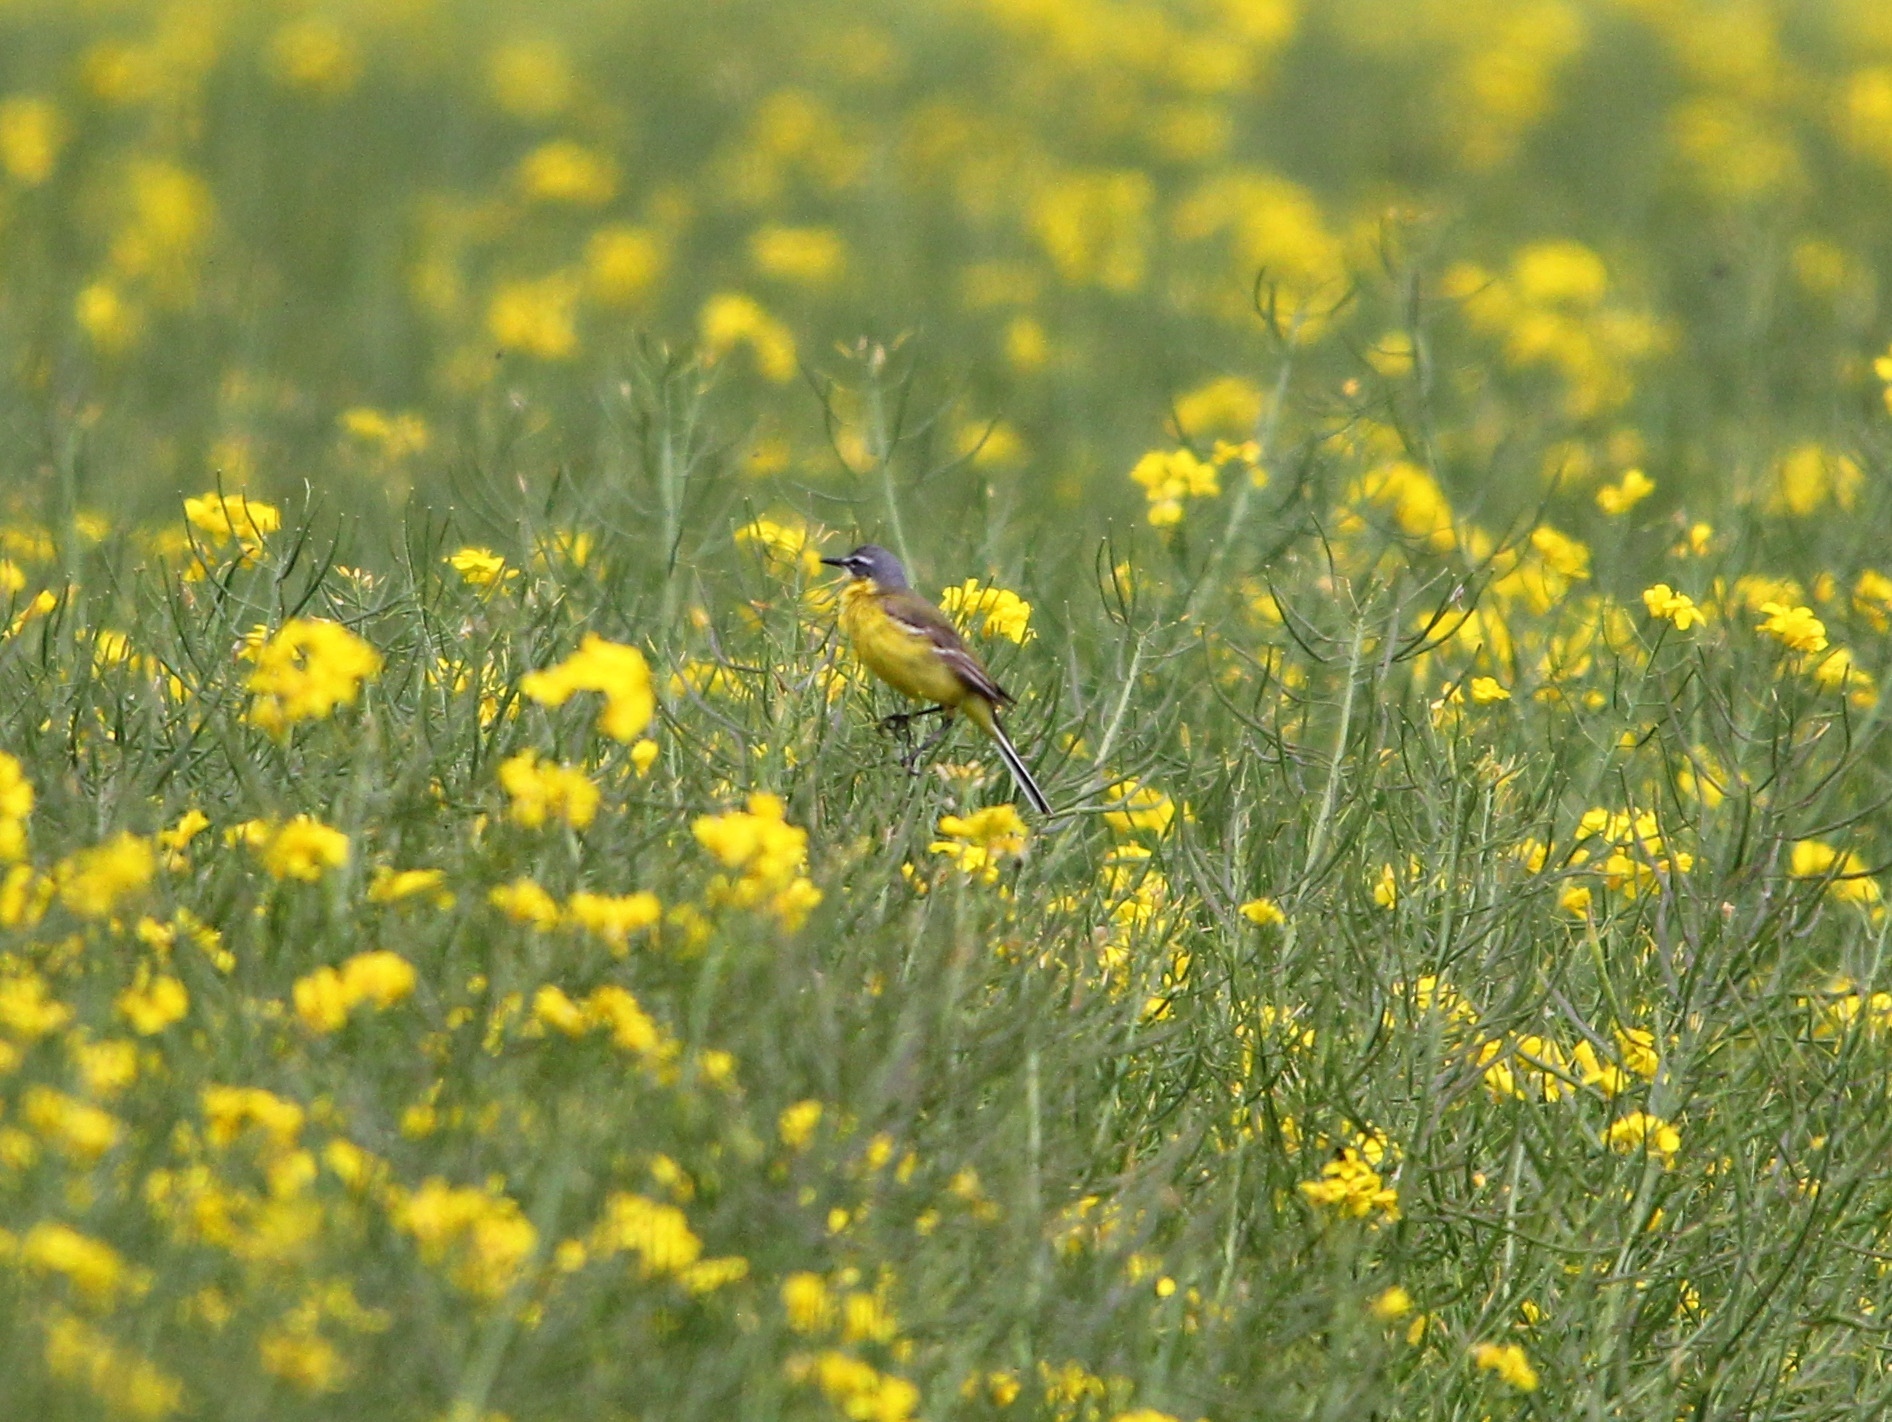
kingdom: Animalia
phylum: Chordata
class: Aves
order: Passeriformes
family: Motacillidae
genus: Motacilla
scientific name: Motacilla flava
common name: Western yellow wagtail
